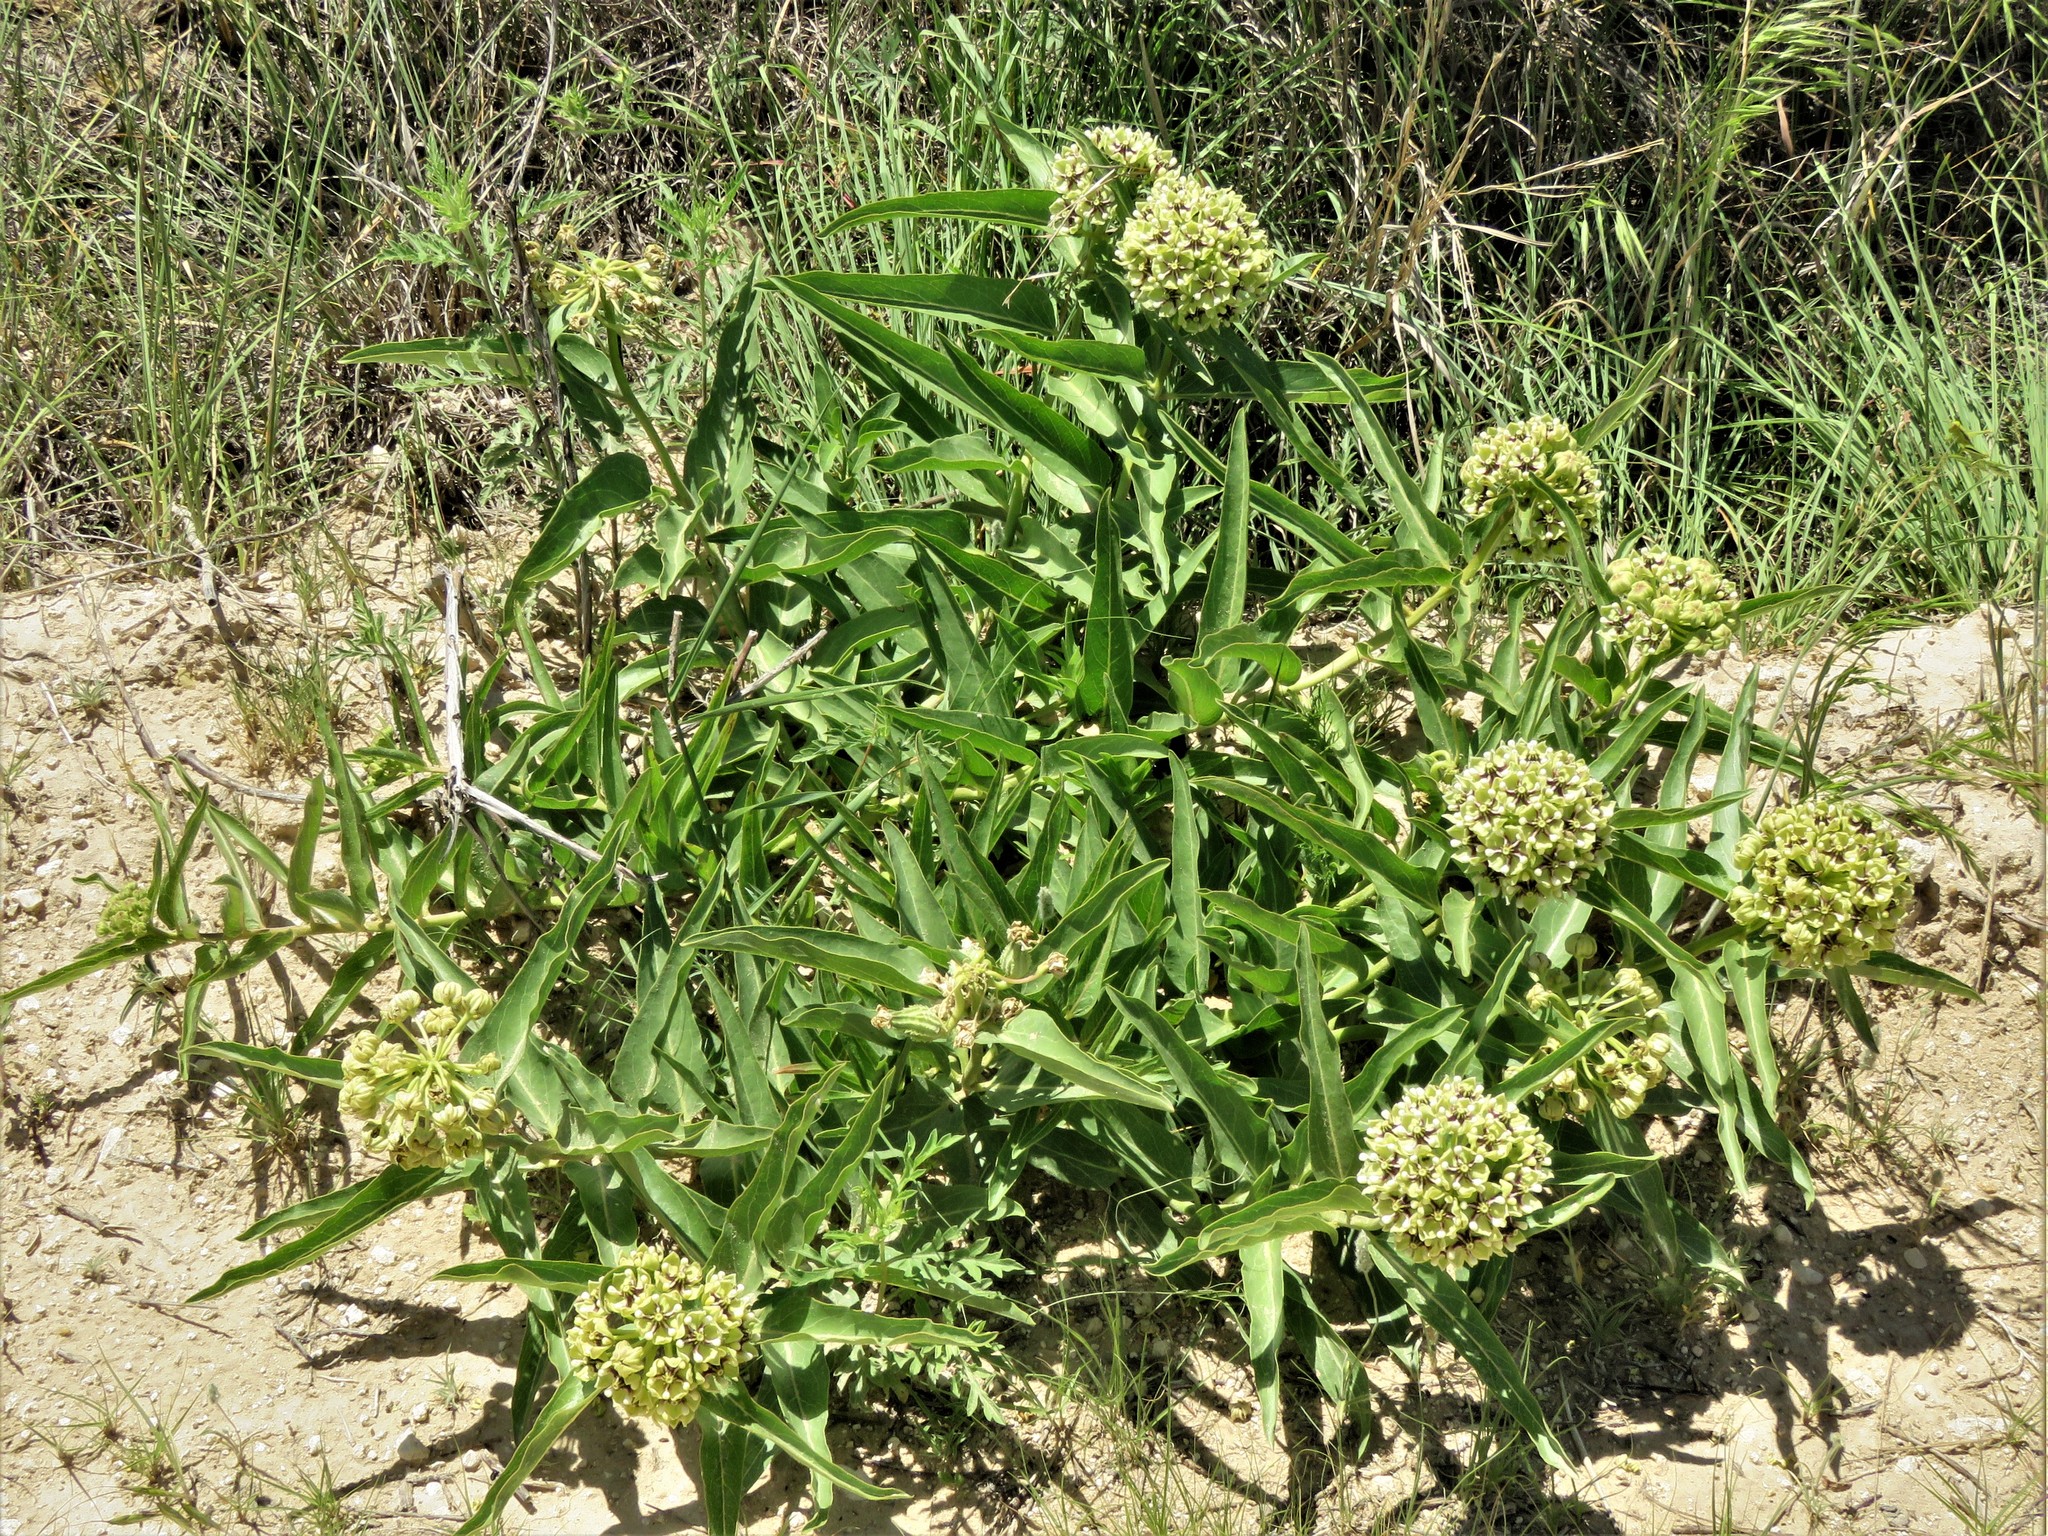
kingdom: Plantae
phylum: Tracheophyta
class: Magnoliopsida
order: Gentianales
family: Apocynaceae
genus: Asclepias
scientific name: Asclepias asperula
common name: Antelope horns
